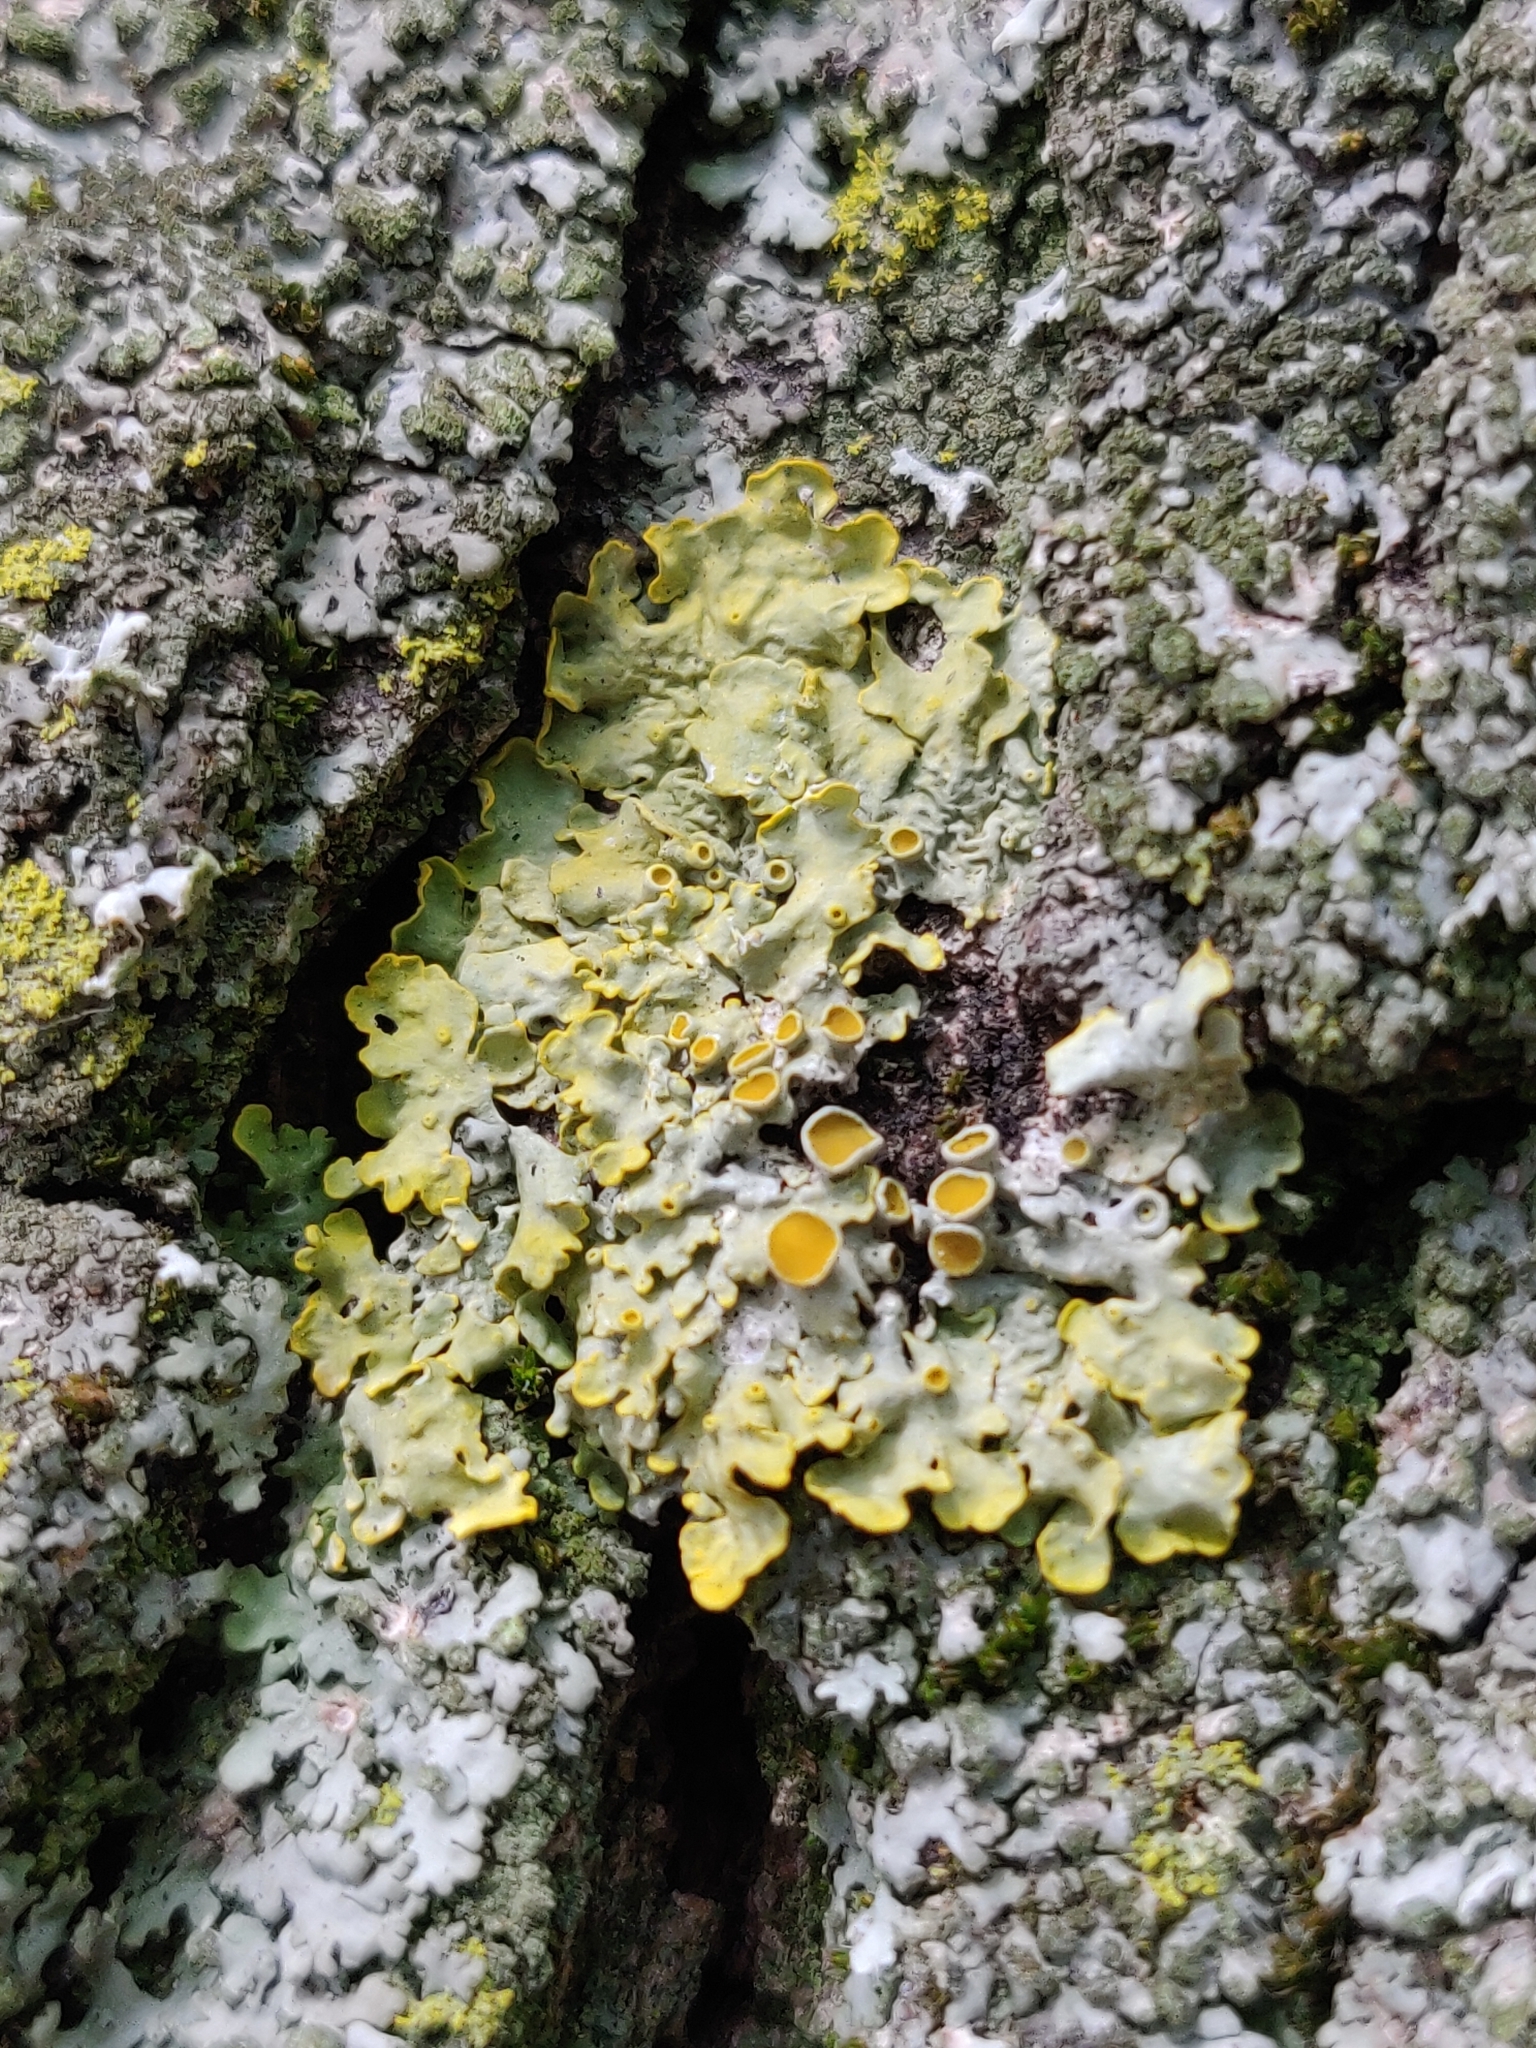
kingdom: Fungi
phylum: Ascomycota
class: Lecanoromycetes
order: Teloschistales
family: Teloschistaceae
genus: Xanthoria
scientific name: Xanthoria parietina
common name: Common orange lichen
